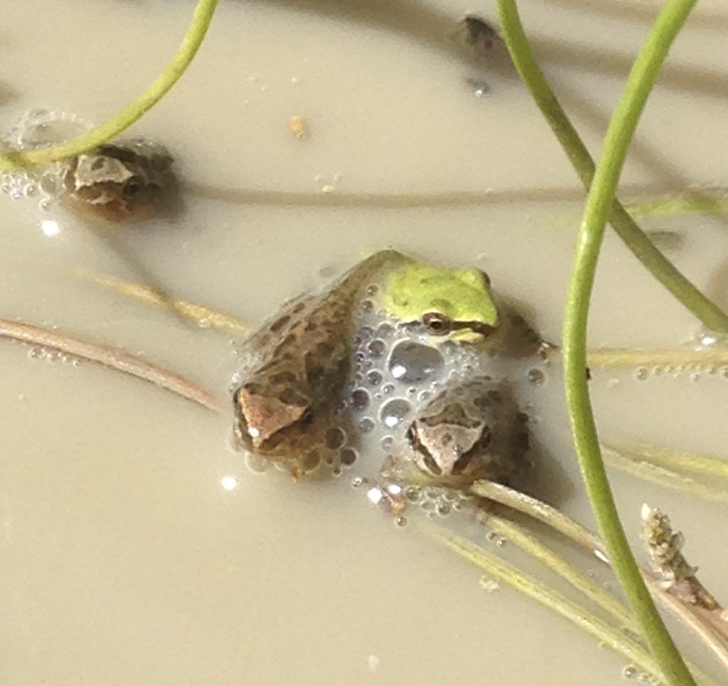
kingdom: Animalia
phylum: Chordata
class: Amphibia
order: Anura
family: Hylidae
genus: Pseudacris
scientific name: Pseudacris regilla
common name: Pacific chorus frog
